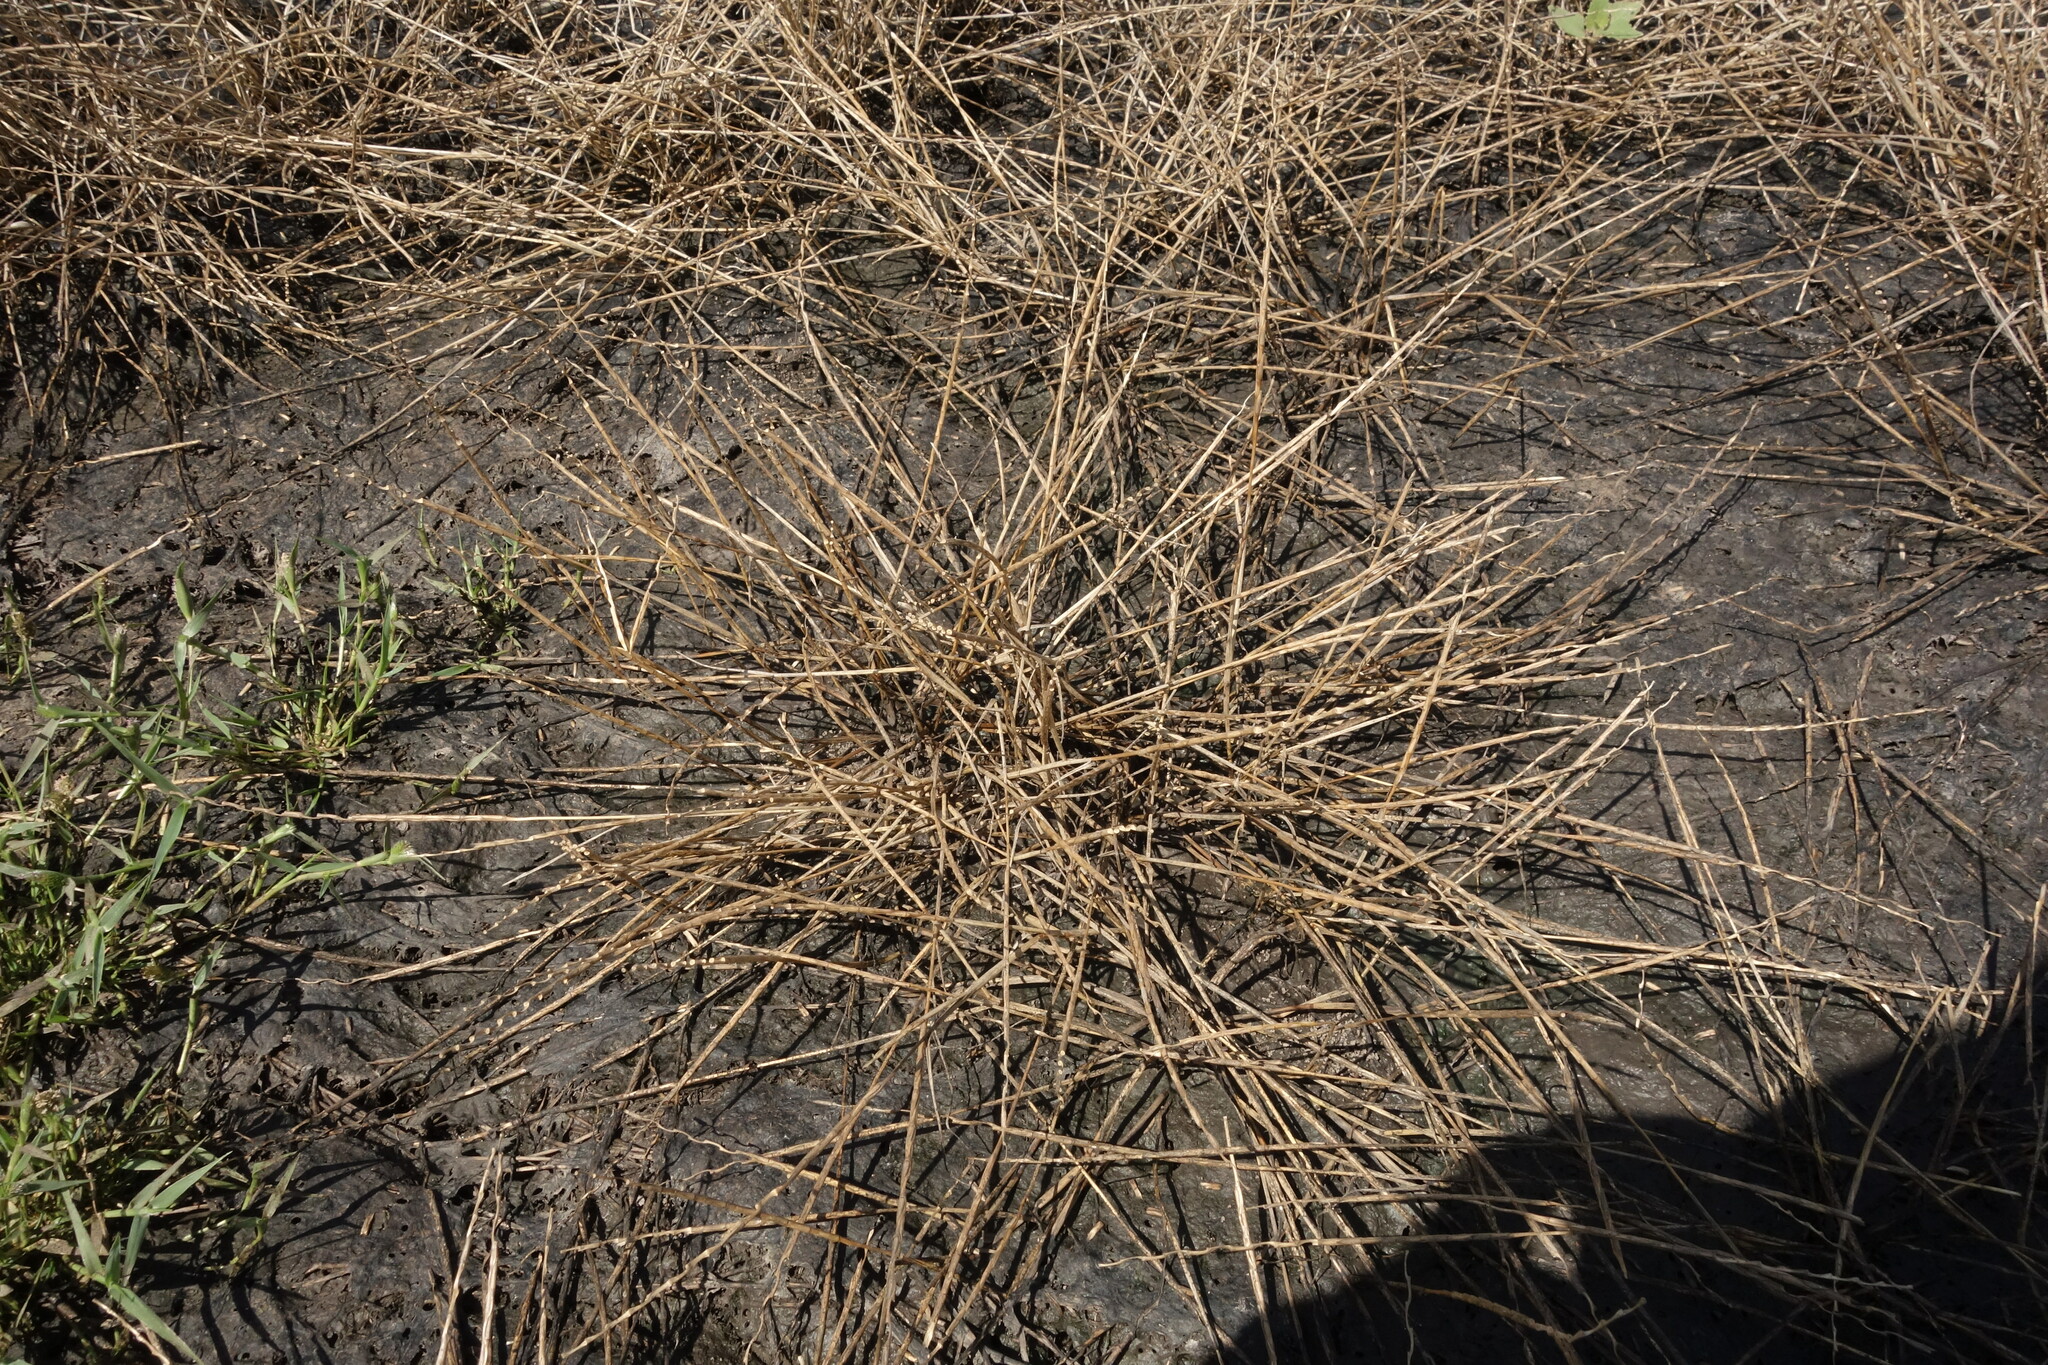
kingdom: Plantae
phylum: Tracheophyta
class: Liliopsida
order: Poales
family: Poaceae
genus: Pholiurus
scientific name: Pholiurus pannonicus
